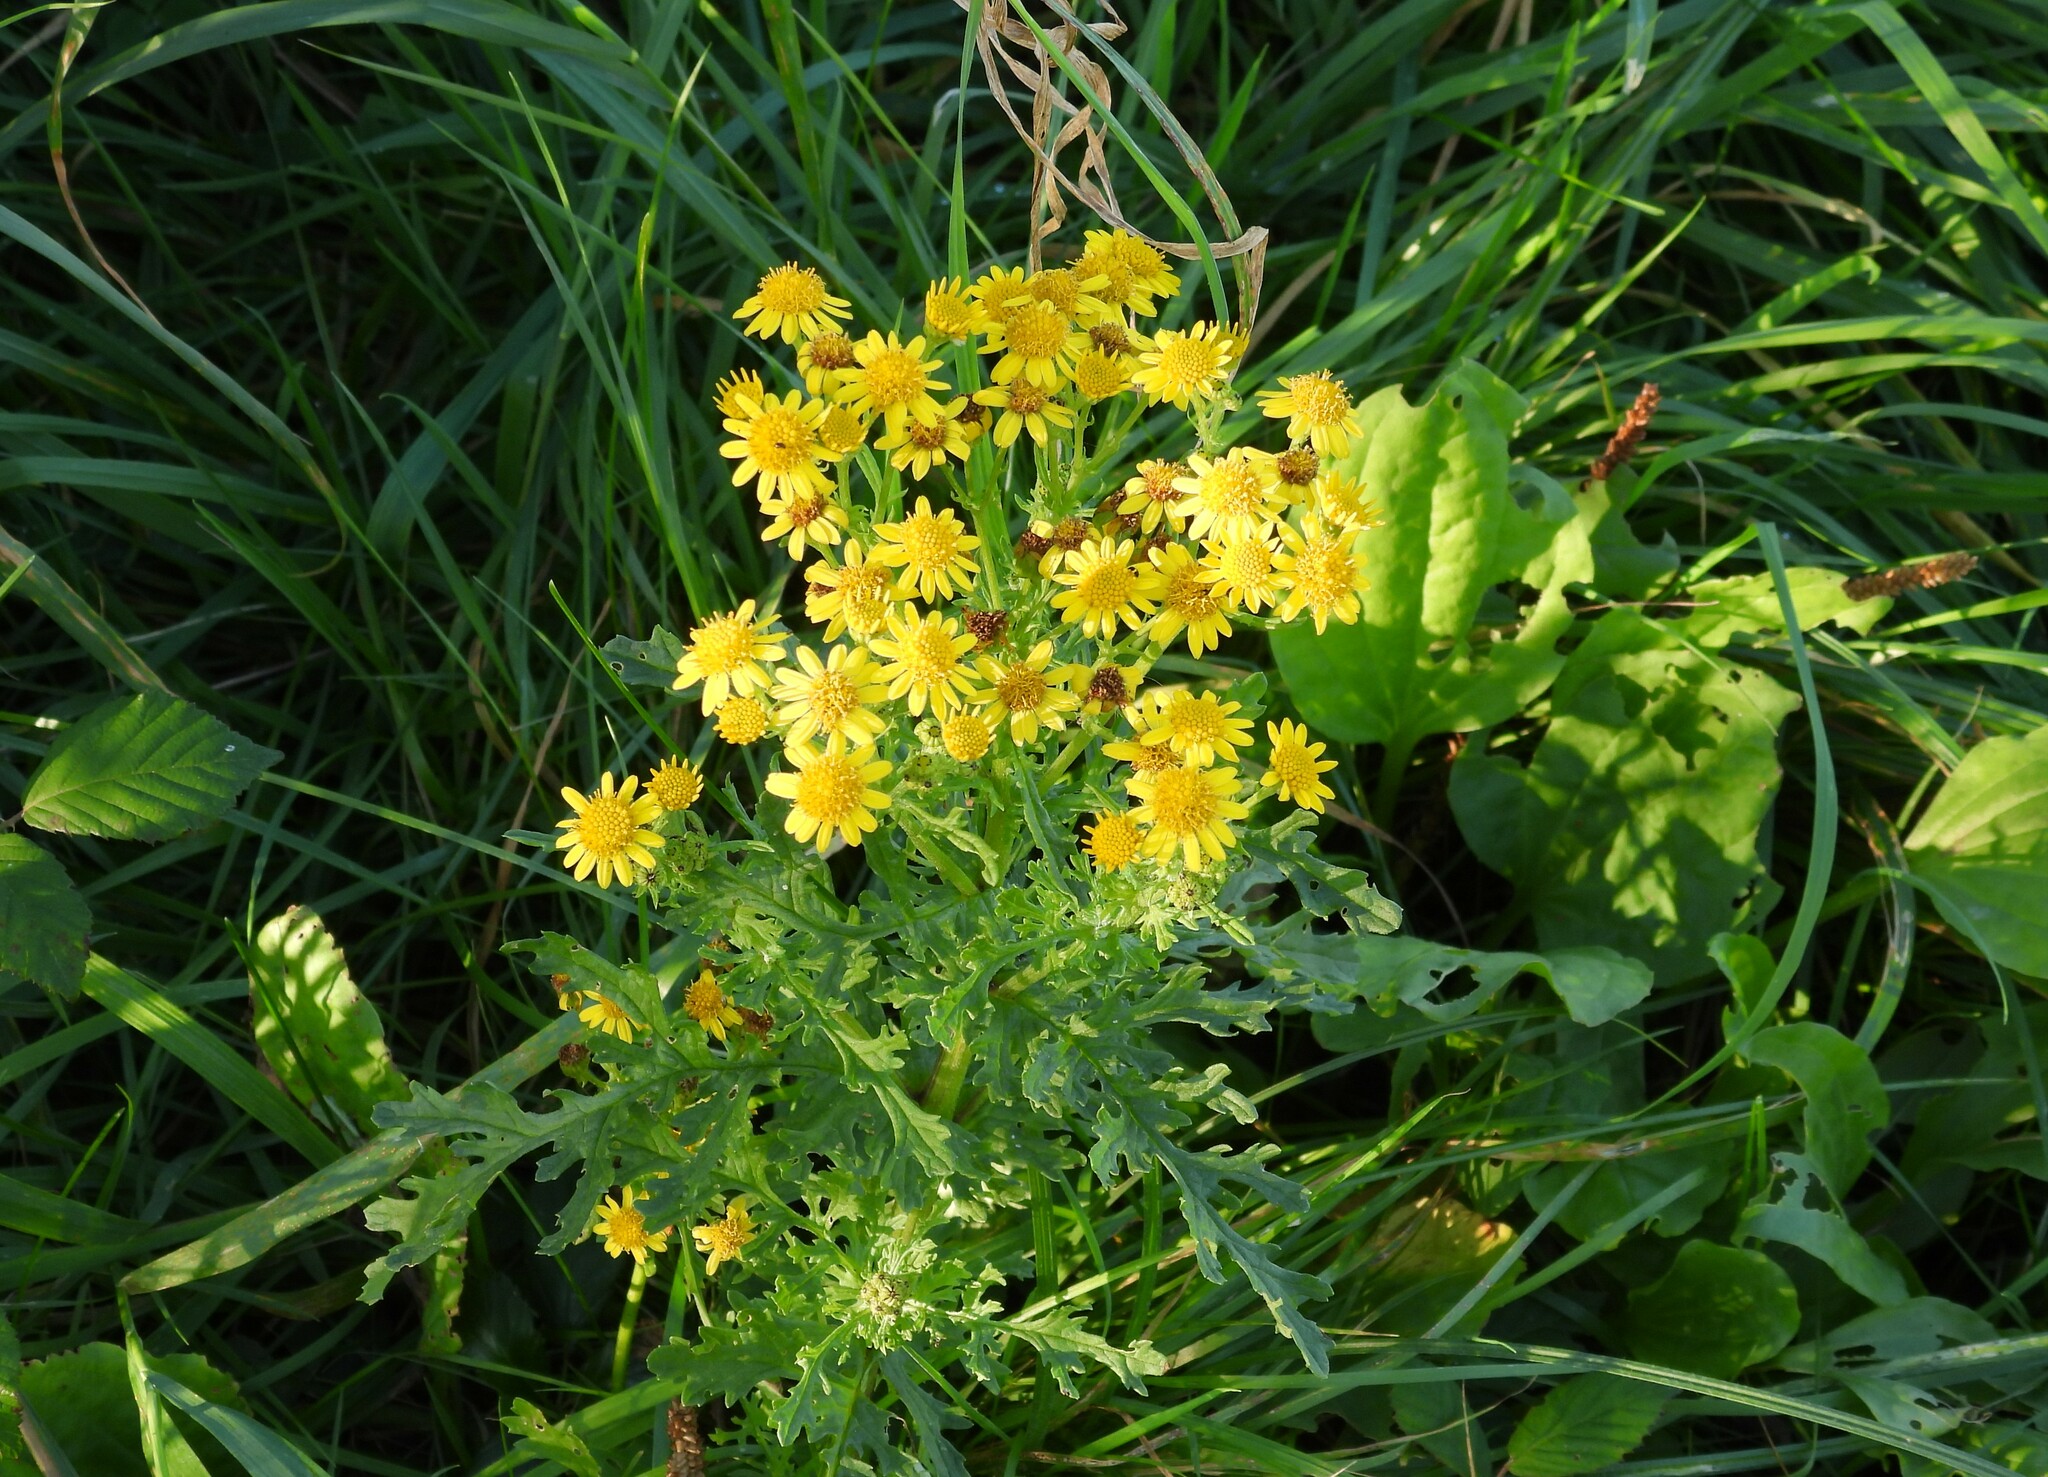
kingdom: Plantae
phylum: Tracheophyta
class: Magnoliopsida
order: Asterales
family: Asteraceae
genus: Jacobaea
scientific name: Jacobaea vulgaris
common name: Stinking willie
